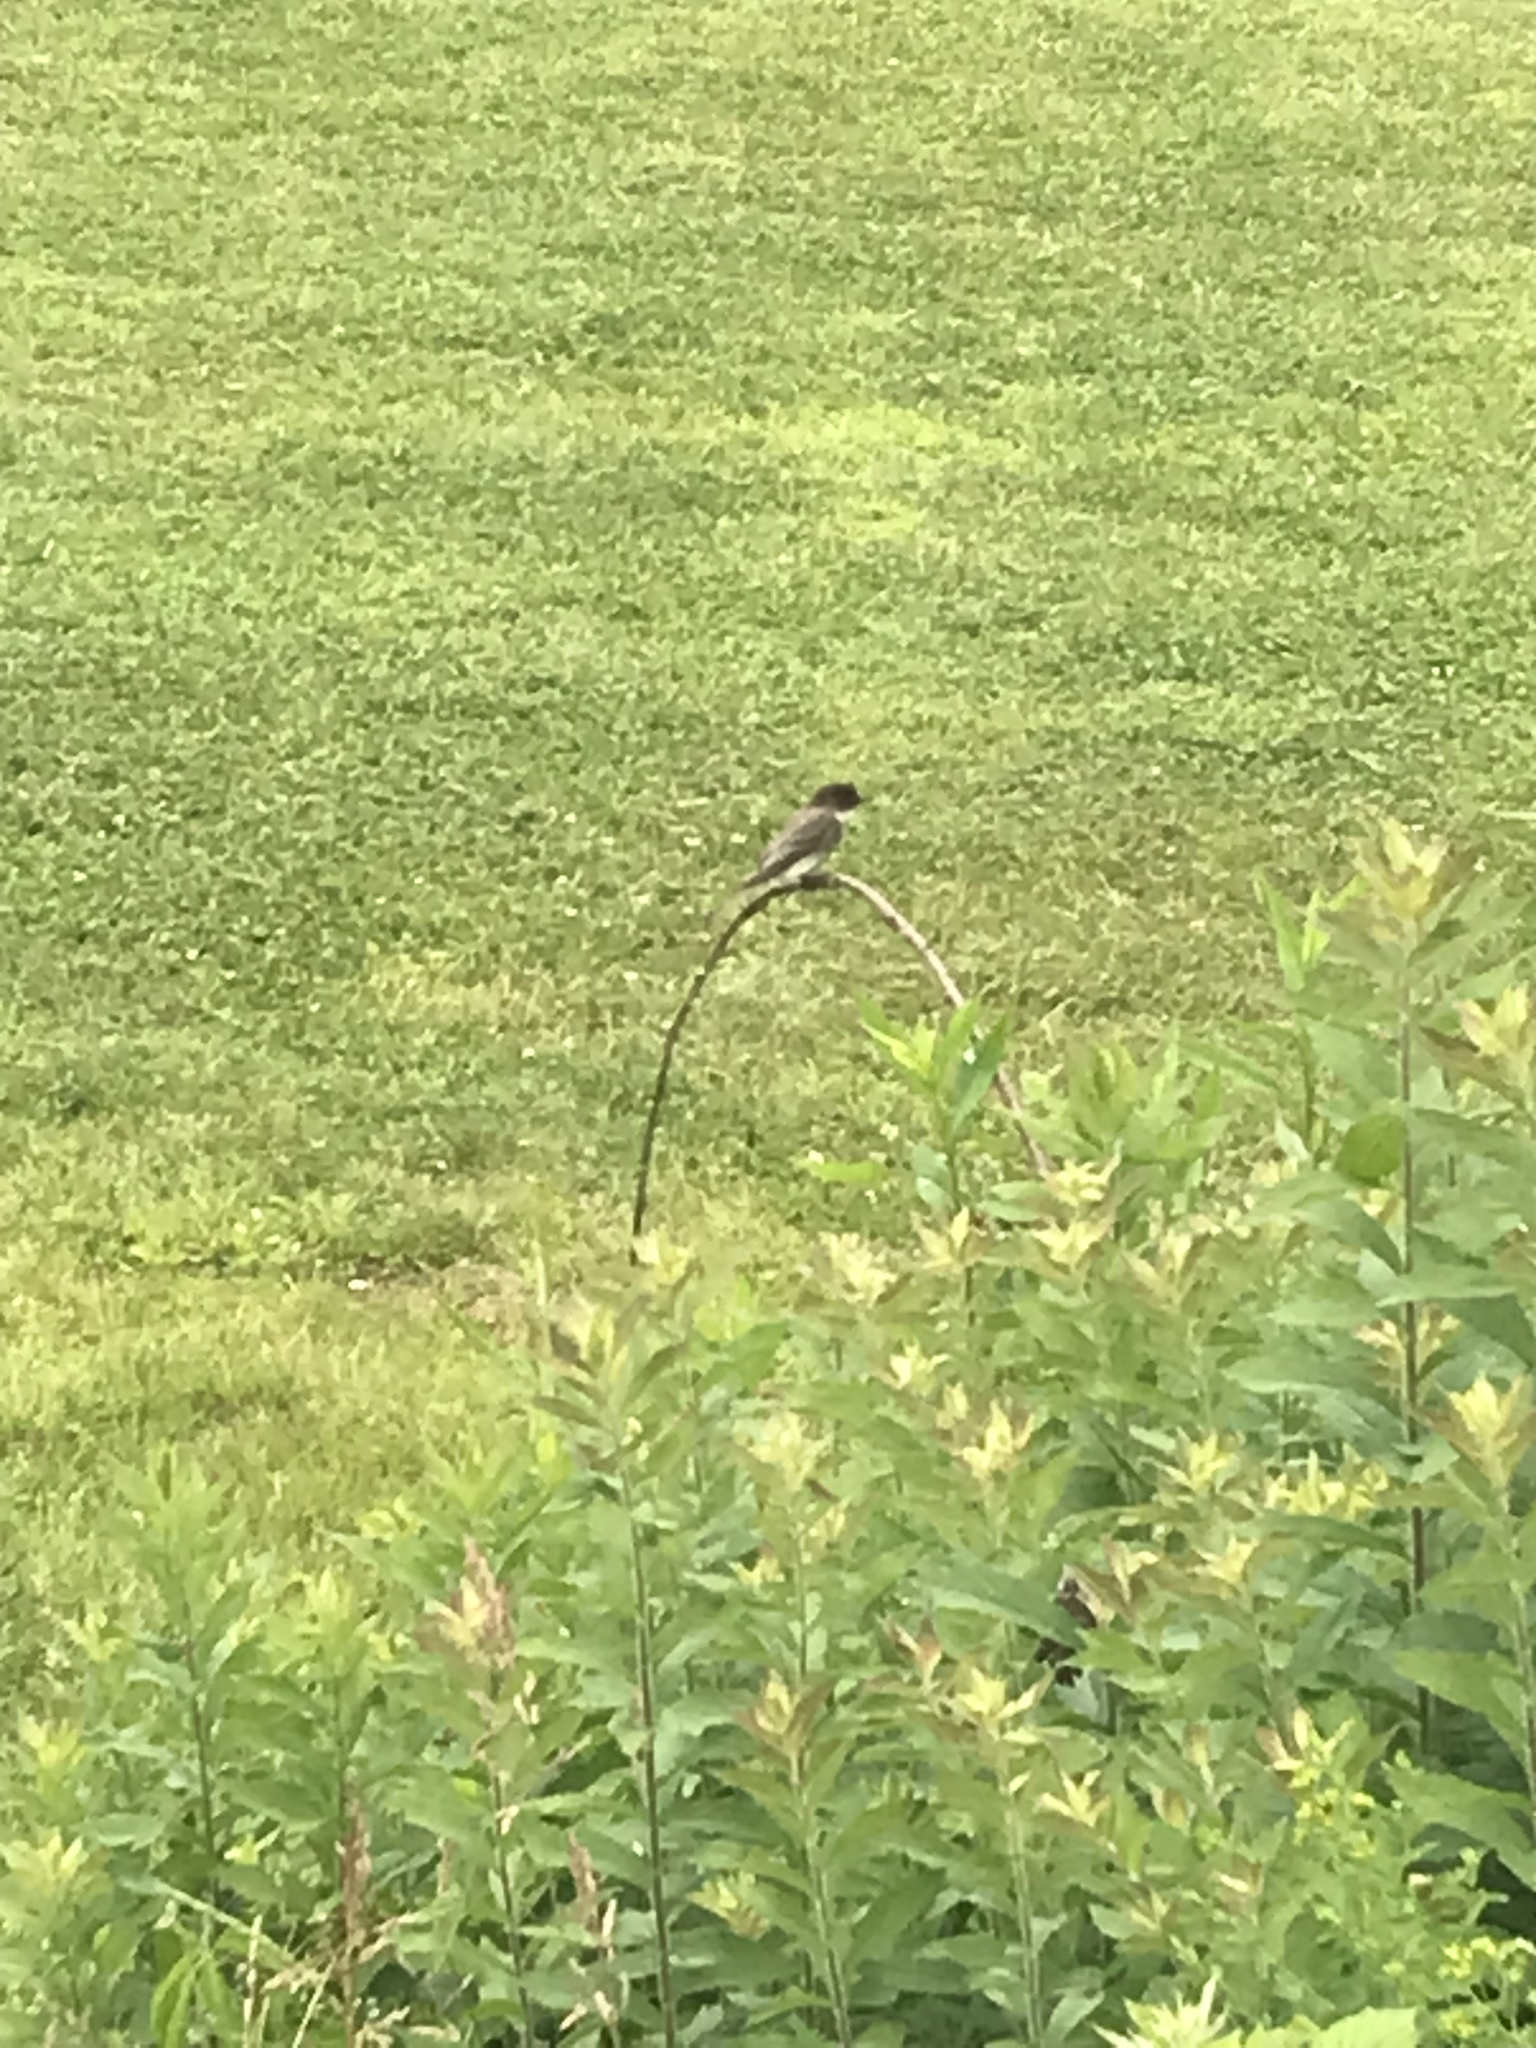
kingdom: Animalia
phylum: Chordata
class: Aves
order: Passeriformes
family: Tyrannidae
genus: Sayornis
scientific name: Sayornis phoebe
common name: Eastern phoebe
